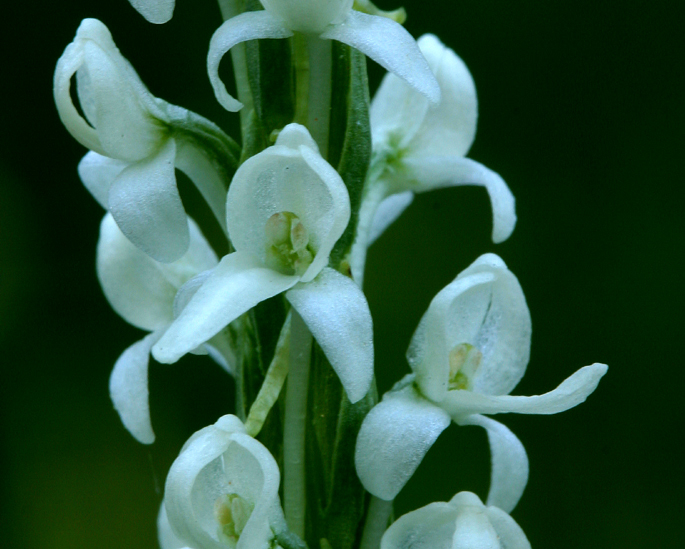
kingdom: Plantae
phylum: Tracheophyta
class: Liliopsida
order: Asparagales
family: Orchidaceae
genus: Platanthera
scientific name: Platanthera dilatata
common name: Bog candles
